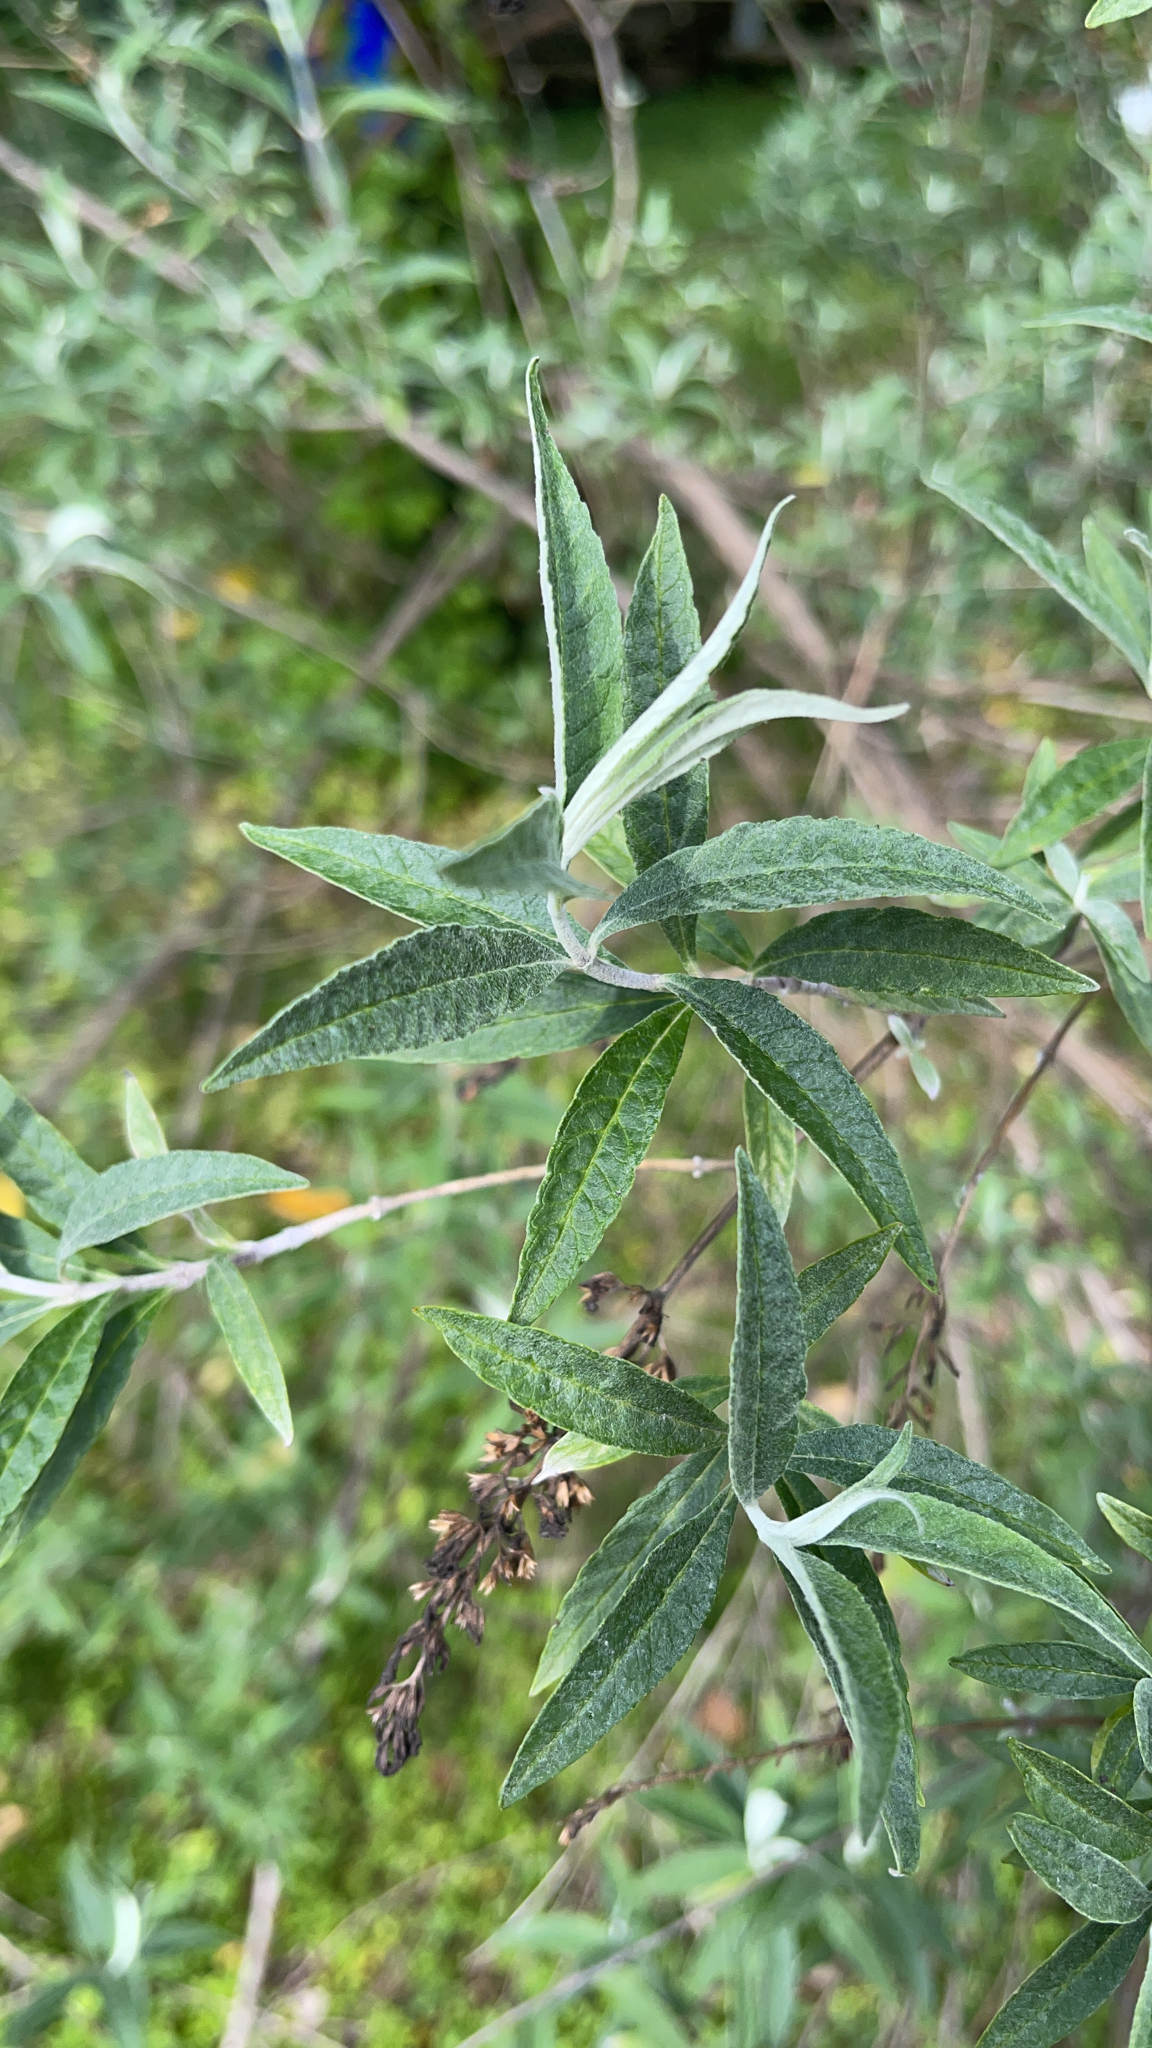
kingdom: Plantae
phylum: Tracheophyta
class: Magnoliopsida
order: Lamiales
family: Scrophulariaceae
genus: Buddleja
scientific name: Buddleja davidii
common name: Butterfly-bush
